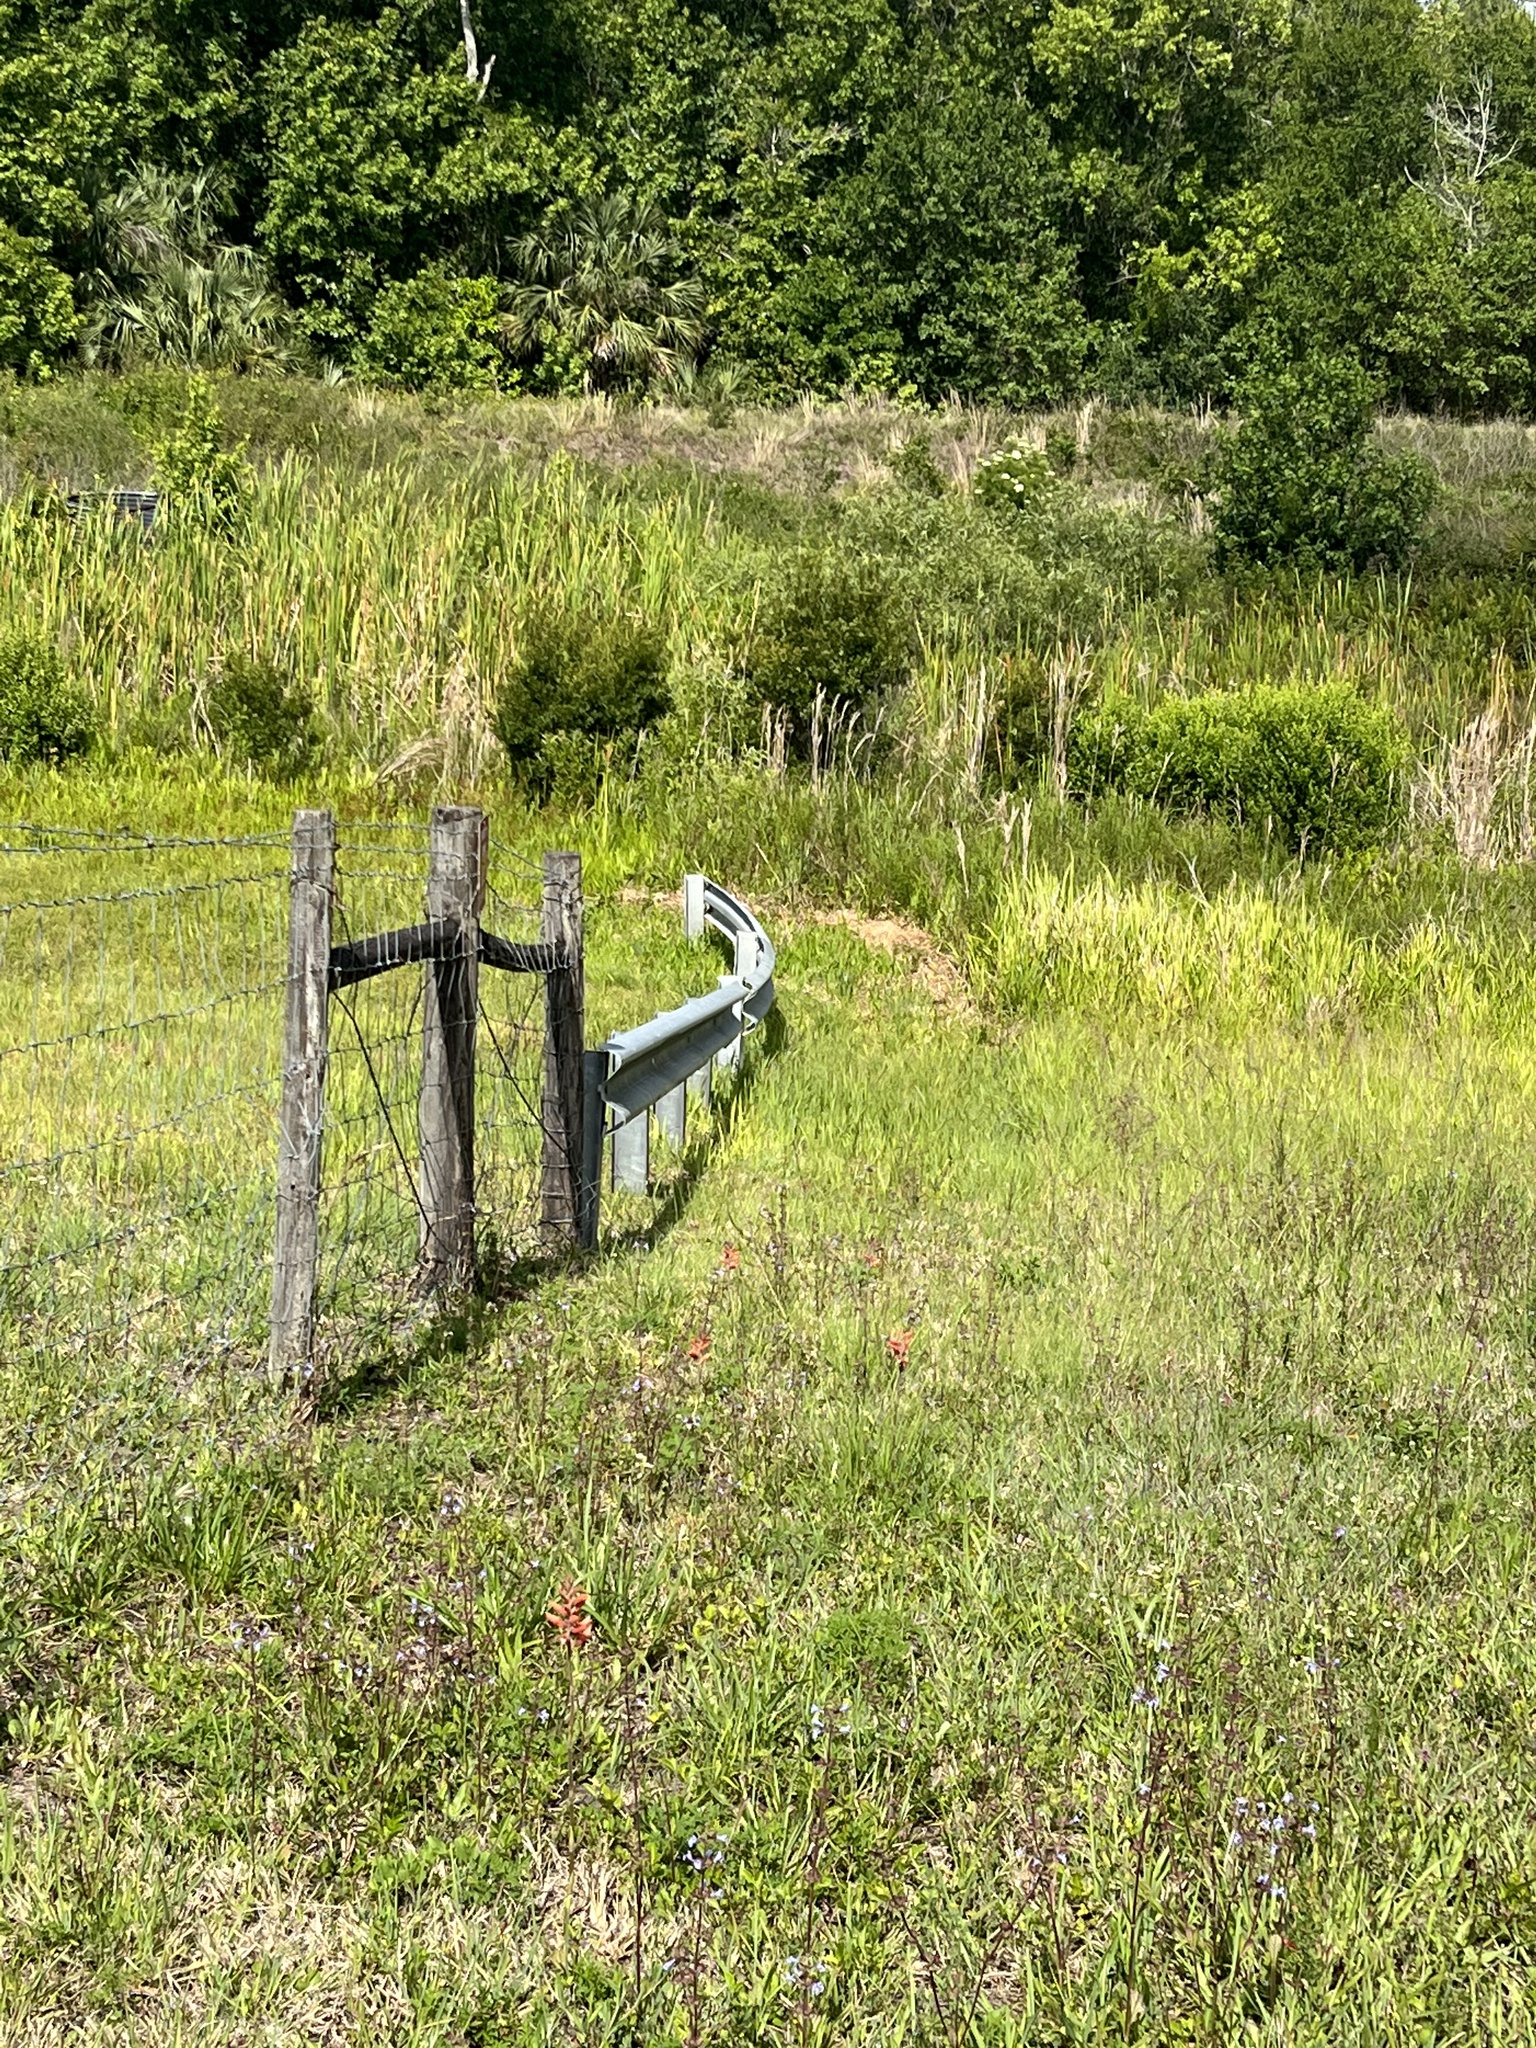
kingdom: Plantae
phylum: Tracheophyta
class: Liliopsida
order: Asparagales
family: Orchidaceae
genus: Sacoila
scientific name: Sacoila lanceolata
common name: Leafless beaked ladiestresses
